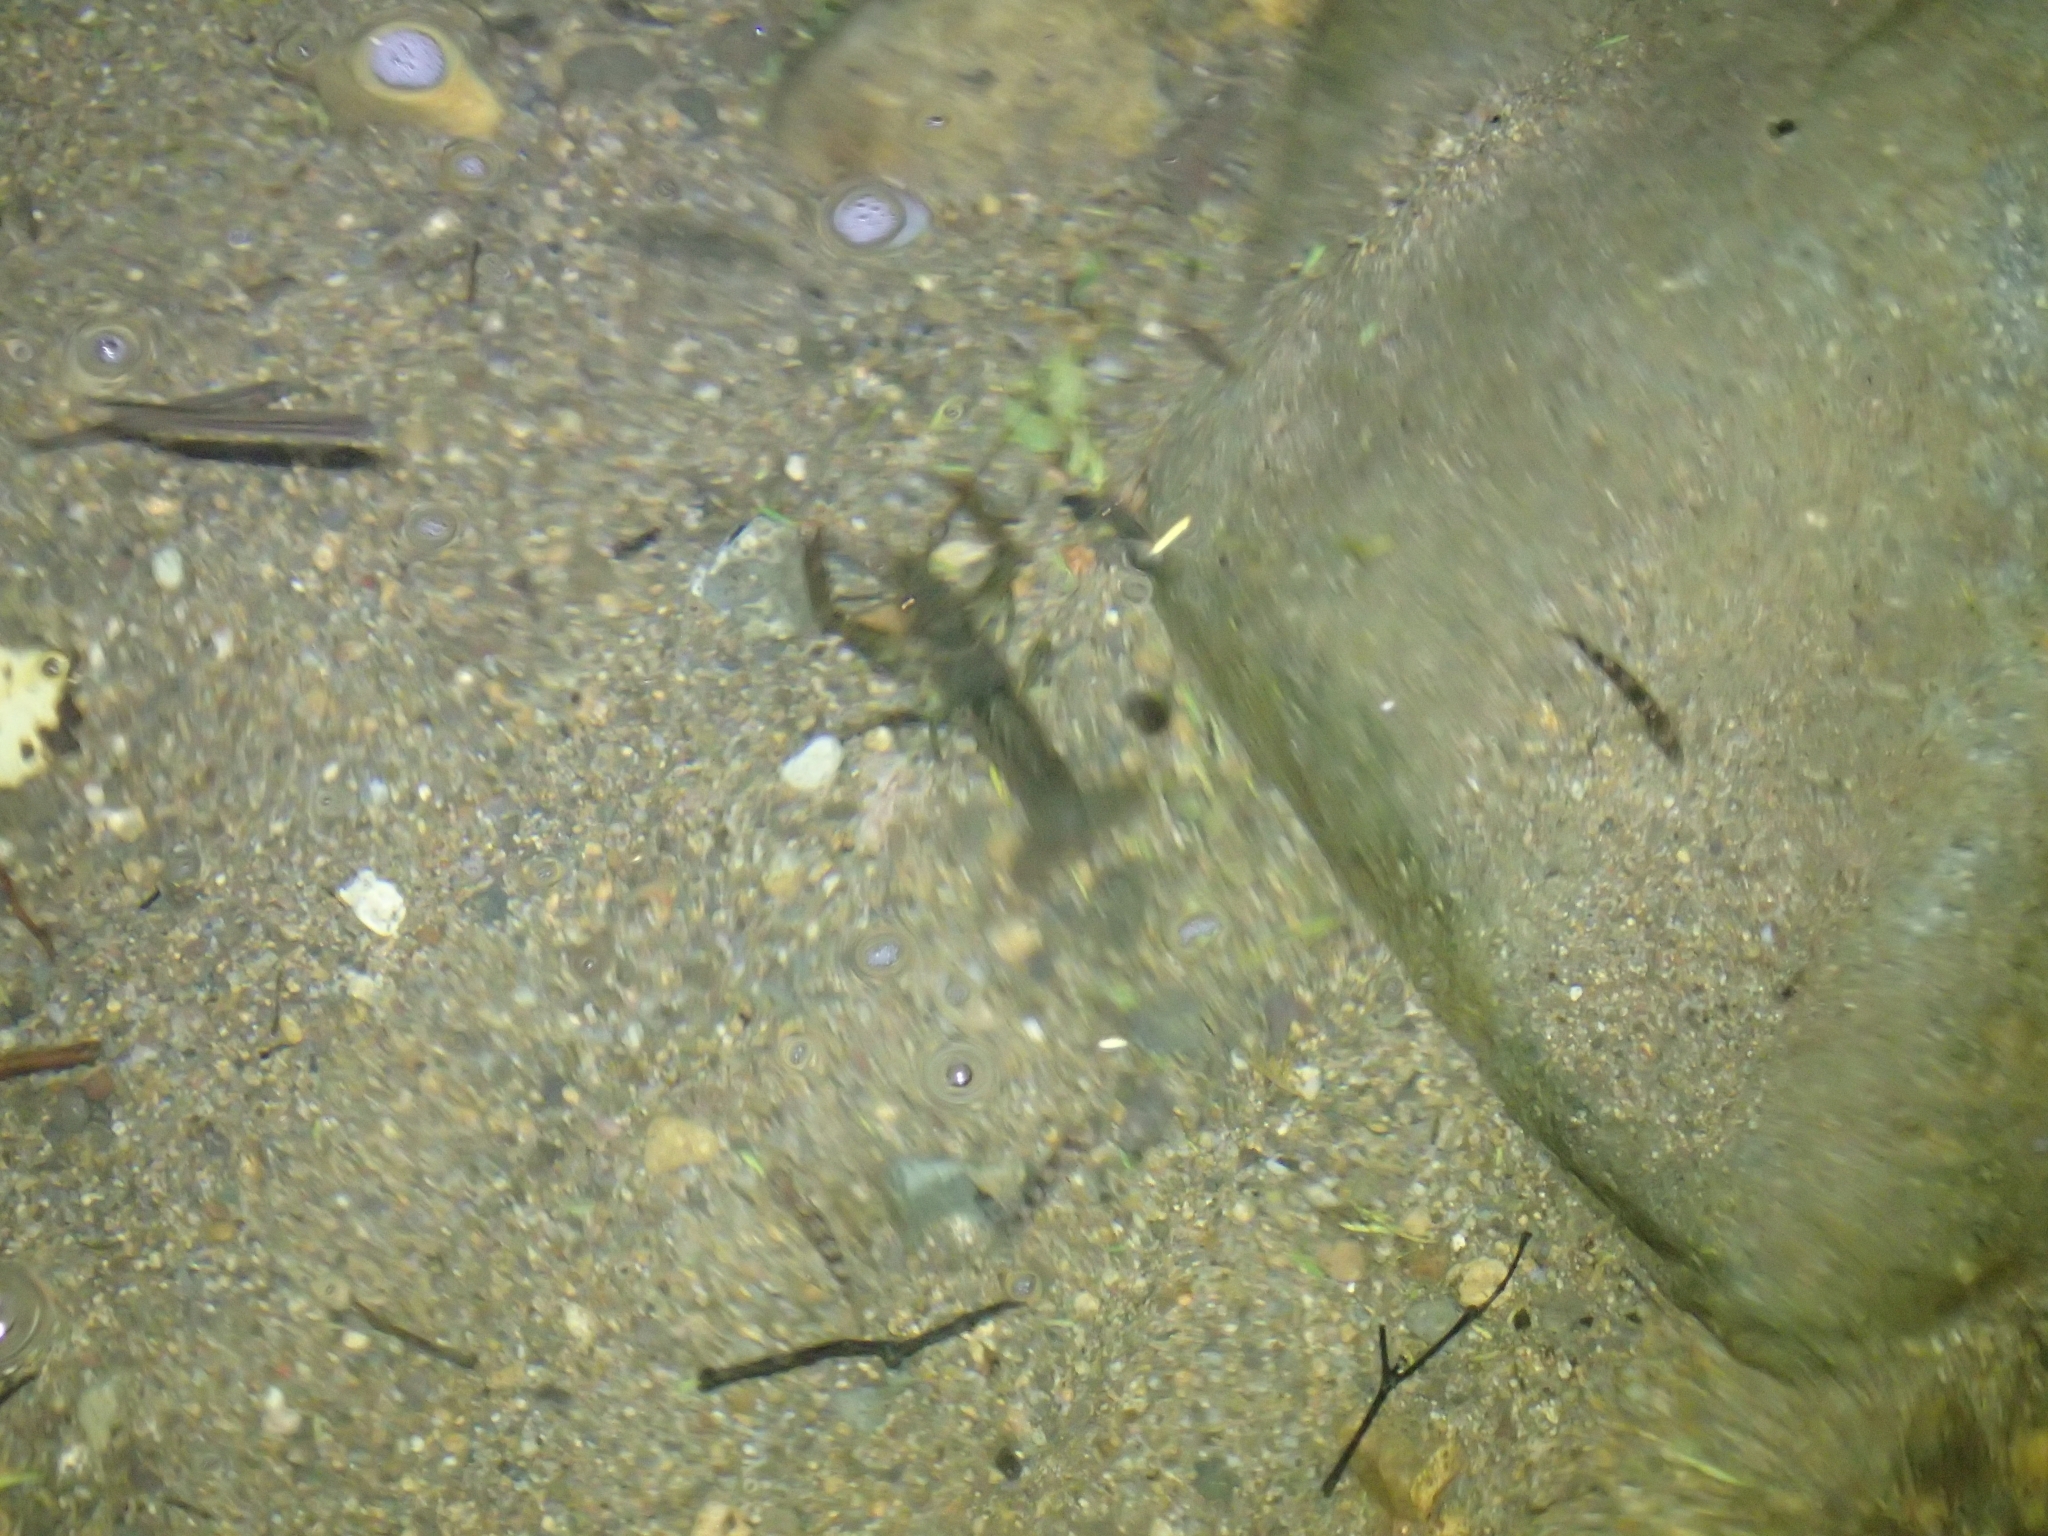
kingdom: Animalia
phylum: Arthropoda
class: Malacostraca
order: Decapoda
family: Parastacidae
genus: Paranephrops
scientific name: Paranephrops planifrons
